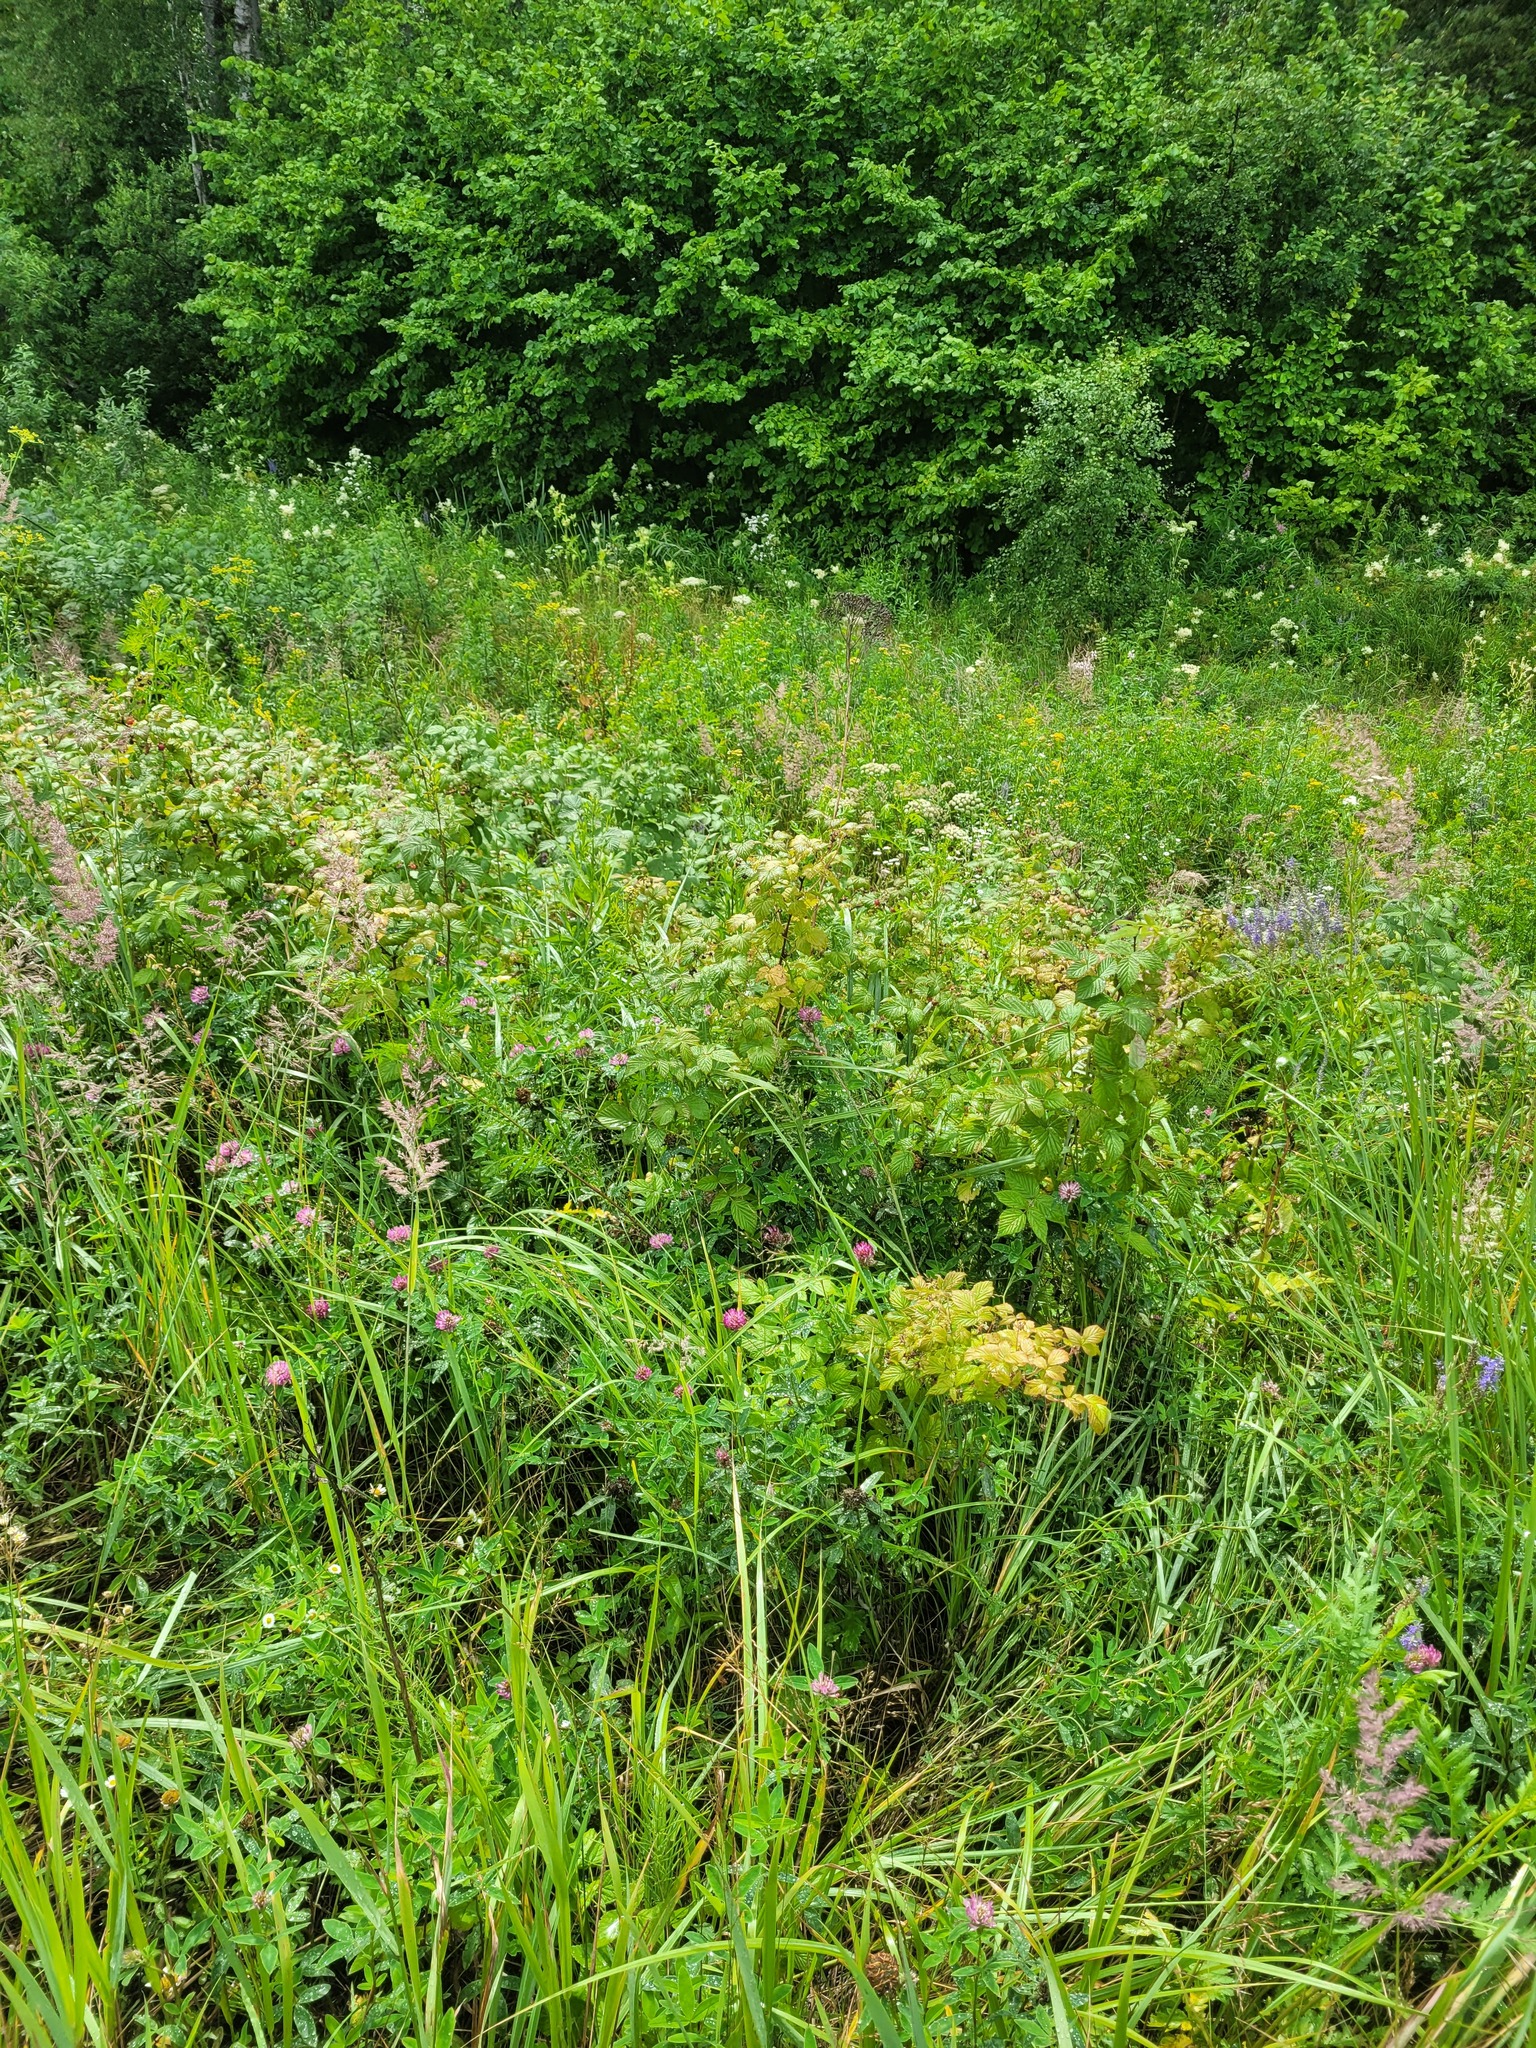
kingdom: Plantae
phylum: Tracheophyta
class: Magnoliopsida
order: Rosales
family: Rosaceae
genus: Rubus
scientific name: Rubus idaeus
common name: Raspberry
